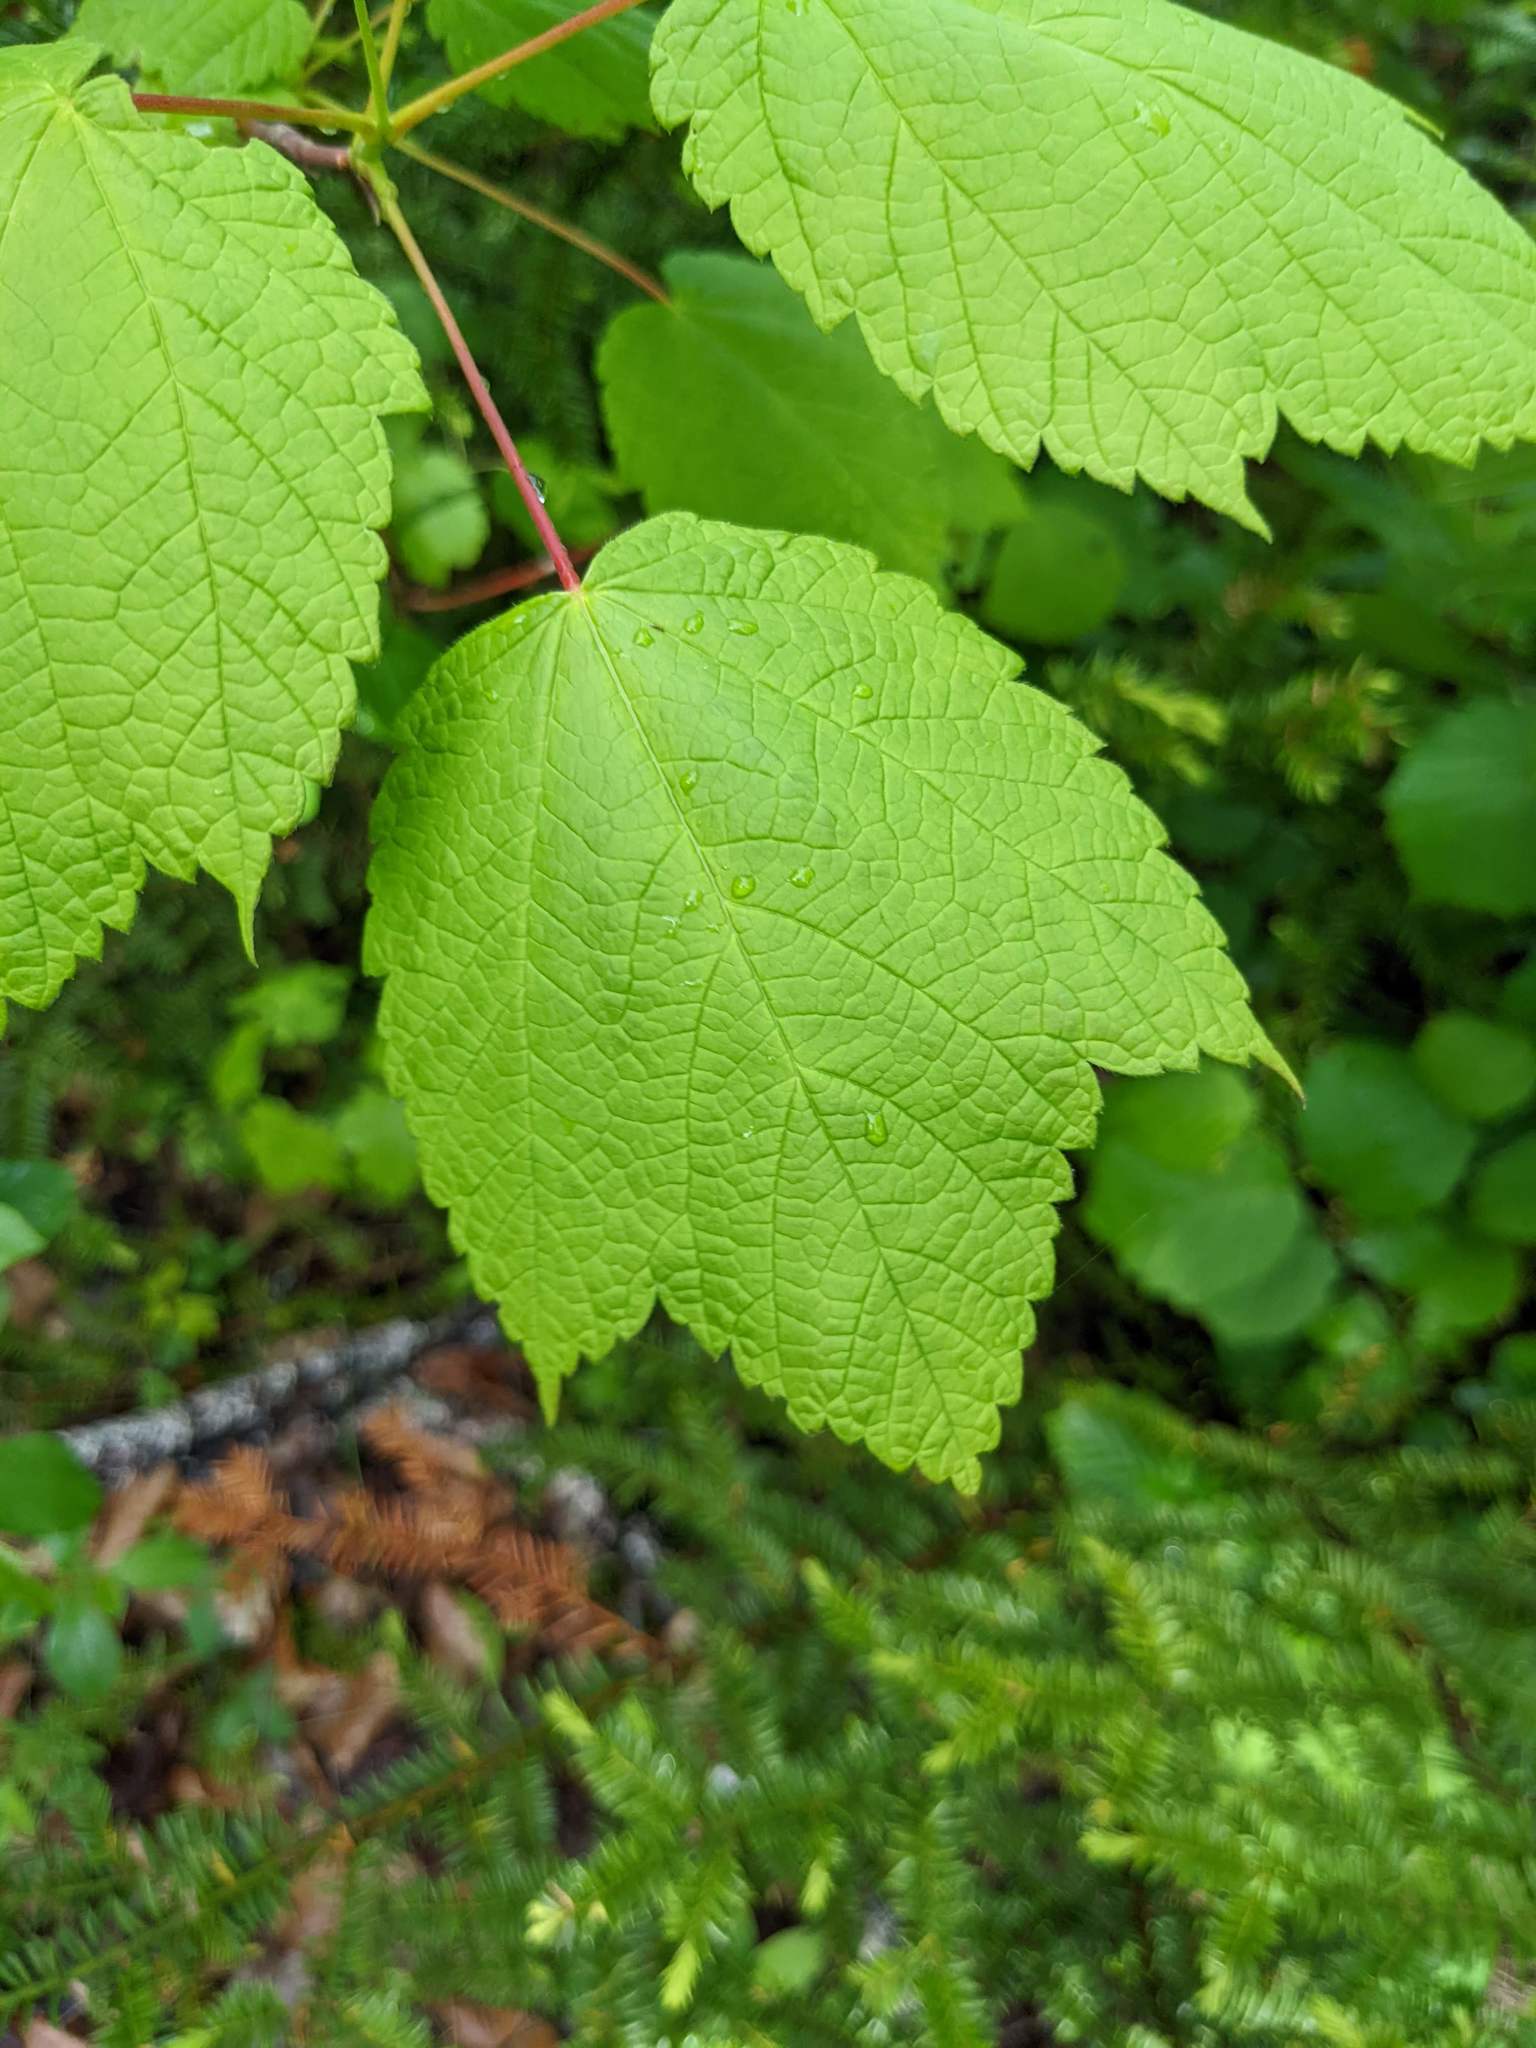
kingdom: Plantae
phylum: Tracheophyta
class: Magnoliopsida
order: Sapindales
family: Sapindaceae
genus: Acer
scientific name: Acer spicatum
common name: Mountain maple
